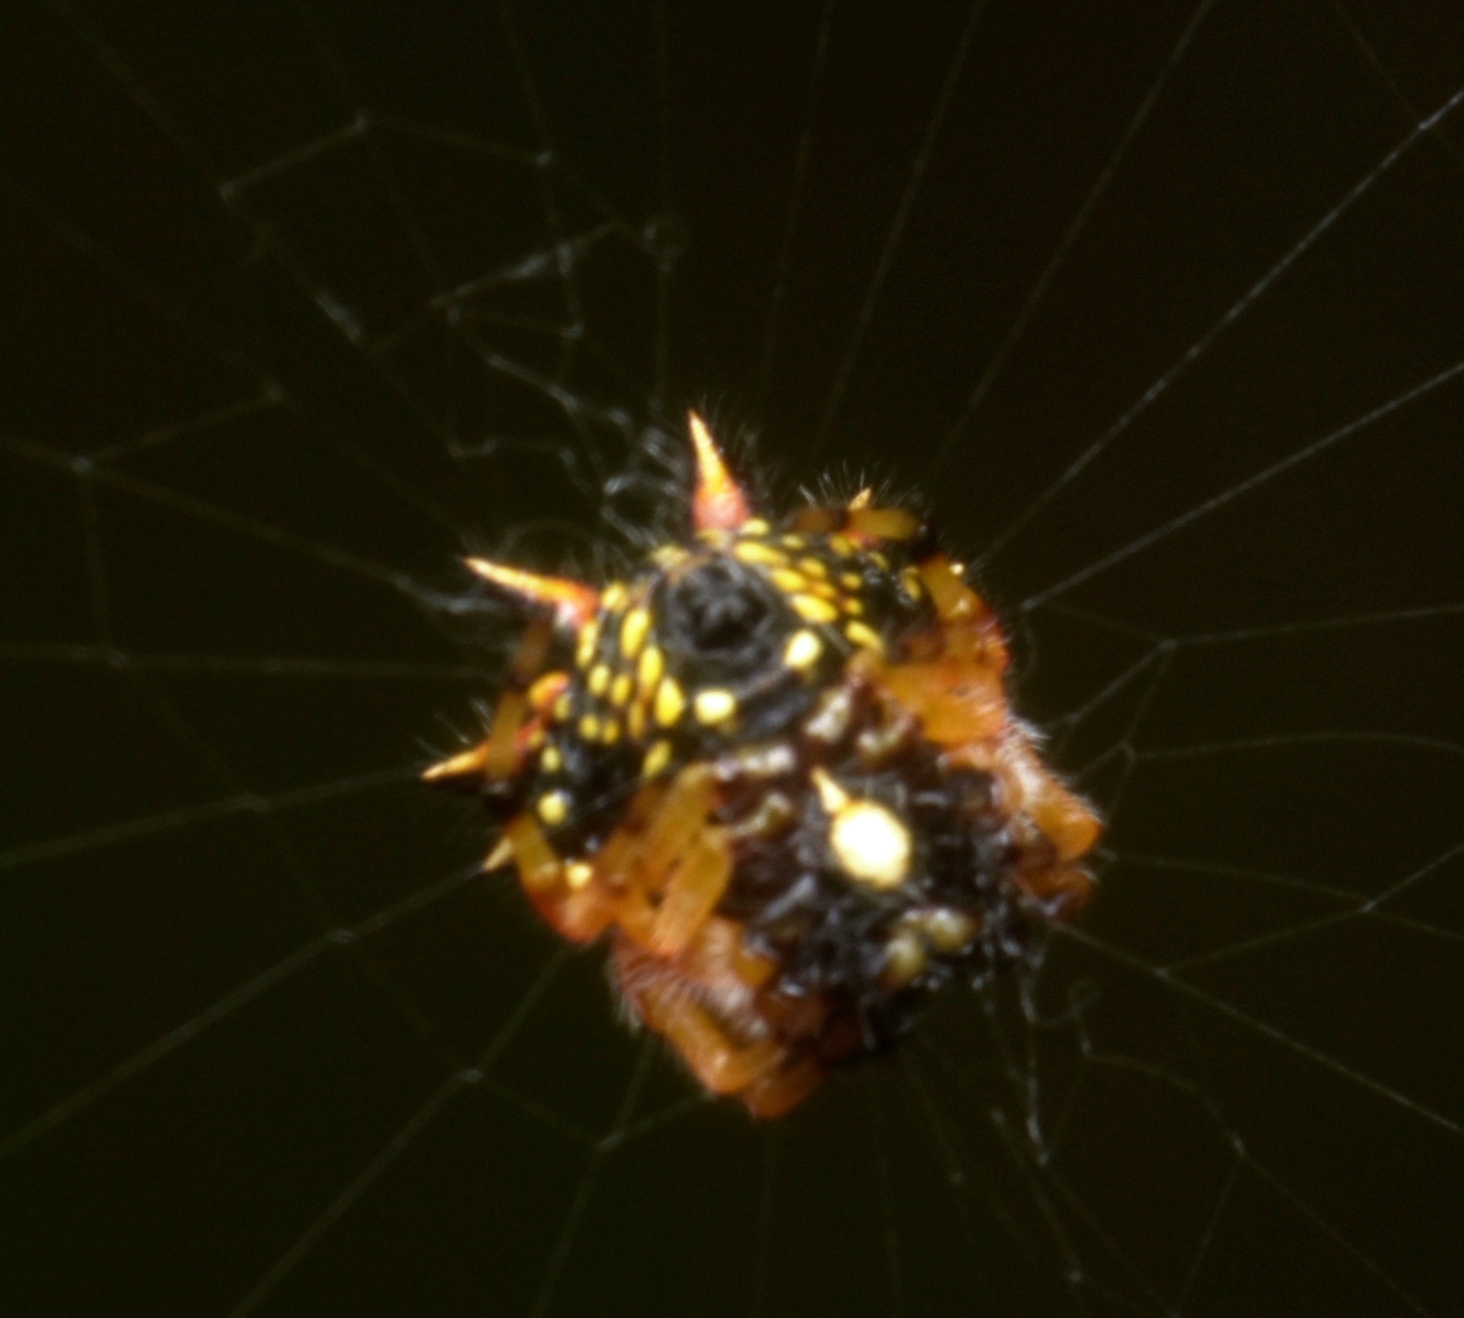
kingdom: Animalia
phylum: Arthropoda
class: Arachnida
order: Araneae
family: Araneidae
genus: Austracantha
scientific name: Austracantha minax
